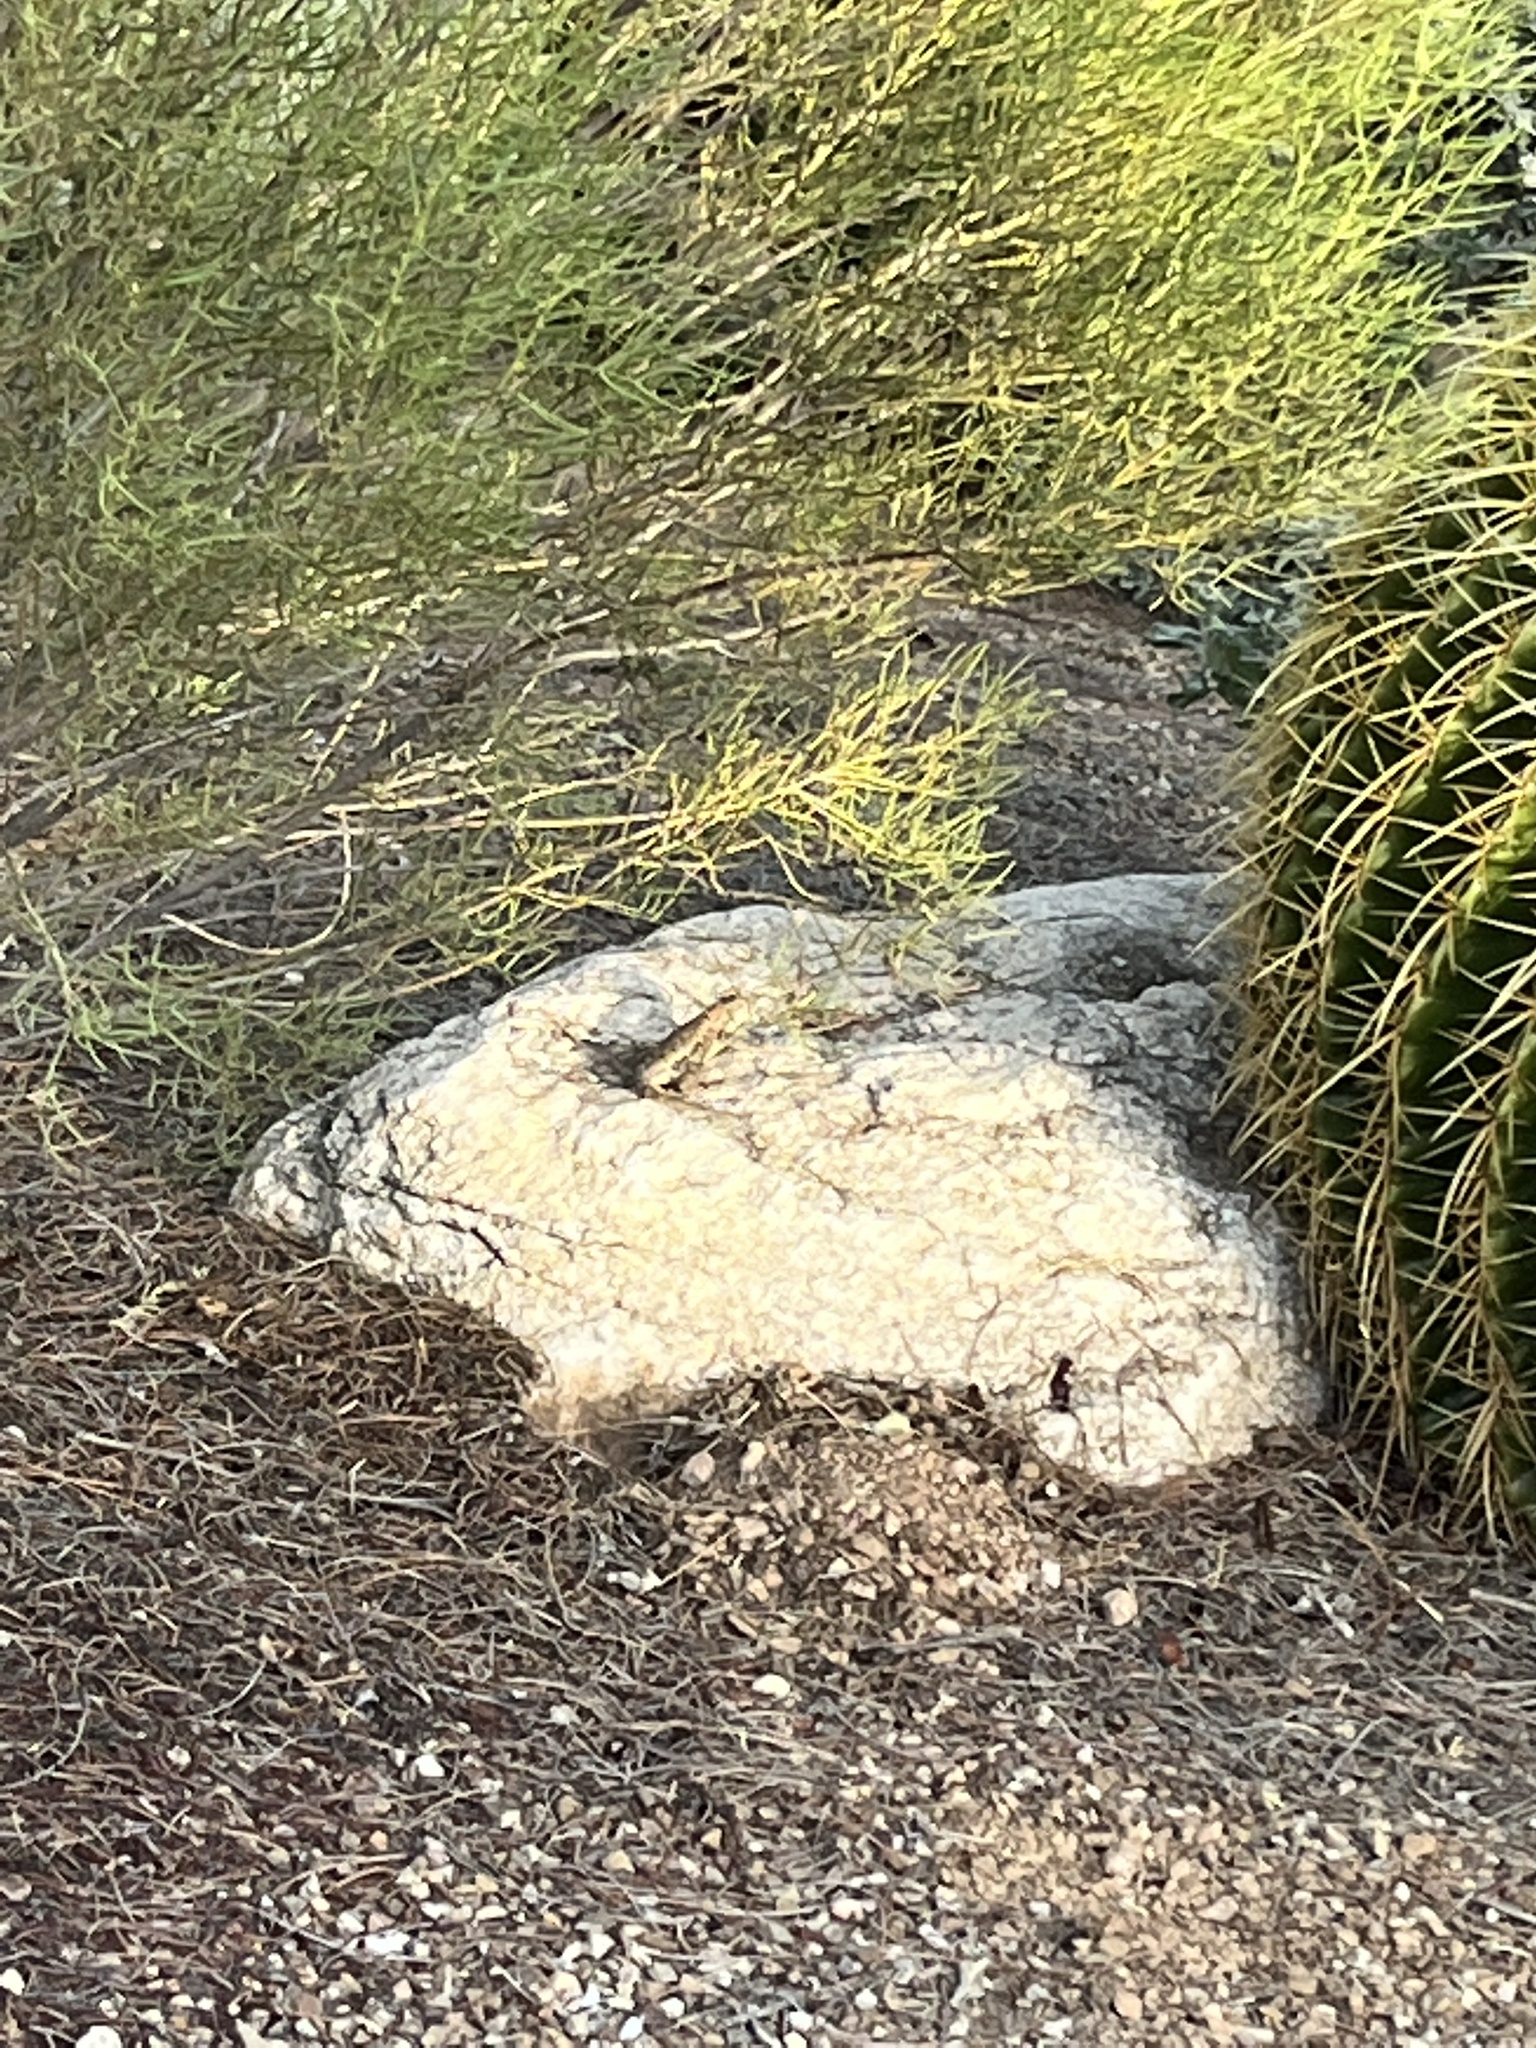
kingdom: Animalia
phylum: Chordata
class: Squamata
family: Phrynosomatidae
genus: Sceloporus
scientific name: Sceloporus magister
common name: Desert spiny lizard
